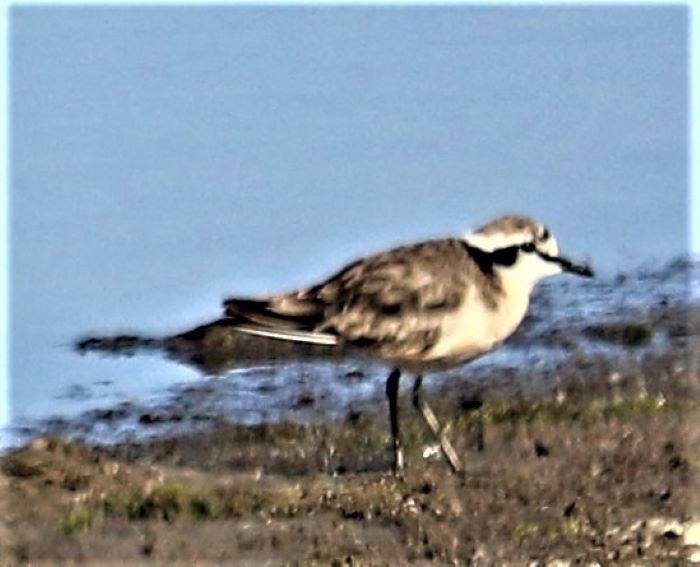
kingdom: Animalia
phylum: Chordata
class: Aves
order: Charadriiformes
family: Charadriidae
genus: Anarhynchus
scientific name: Anarhynchus
